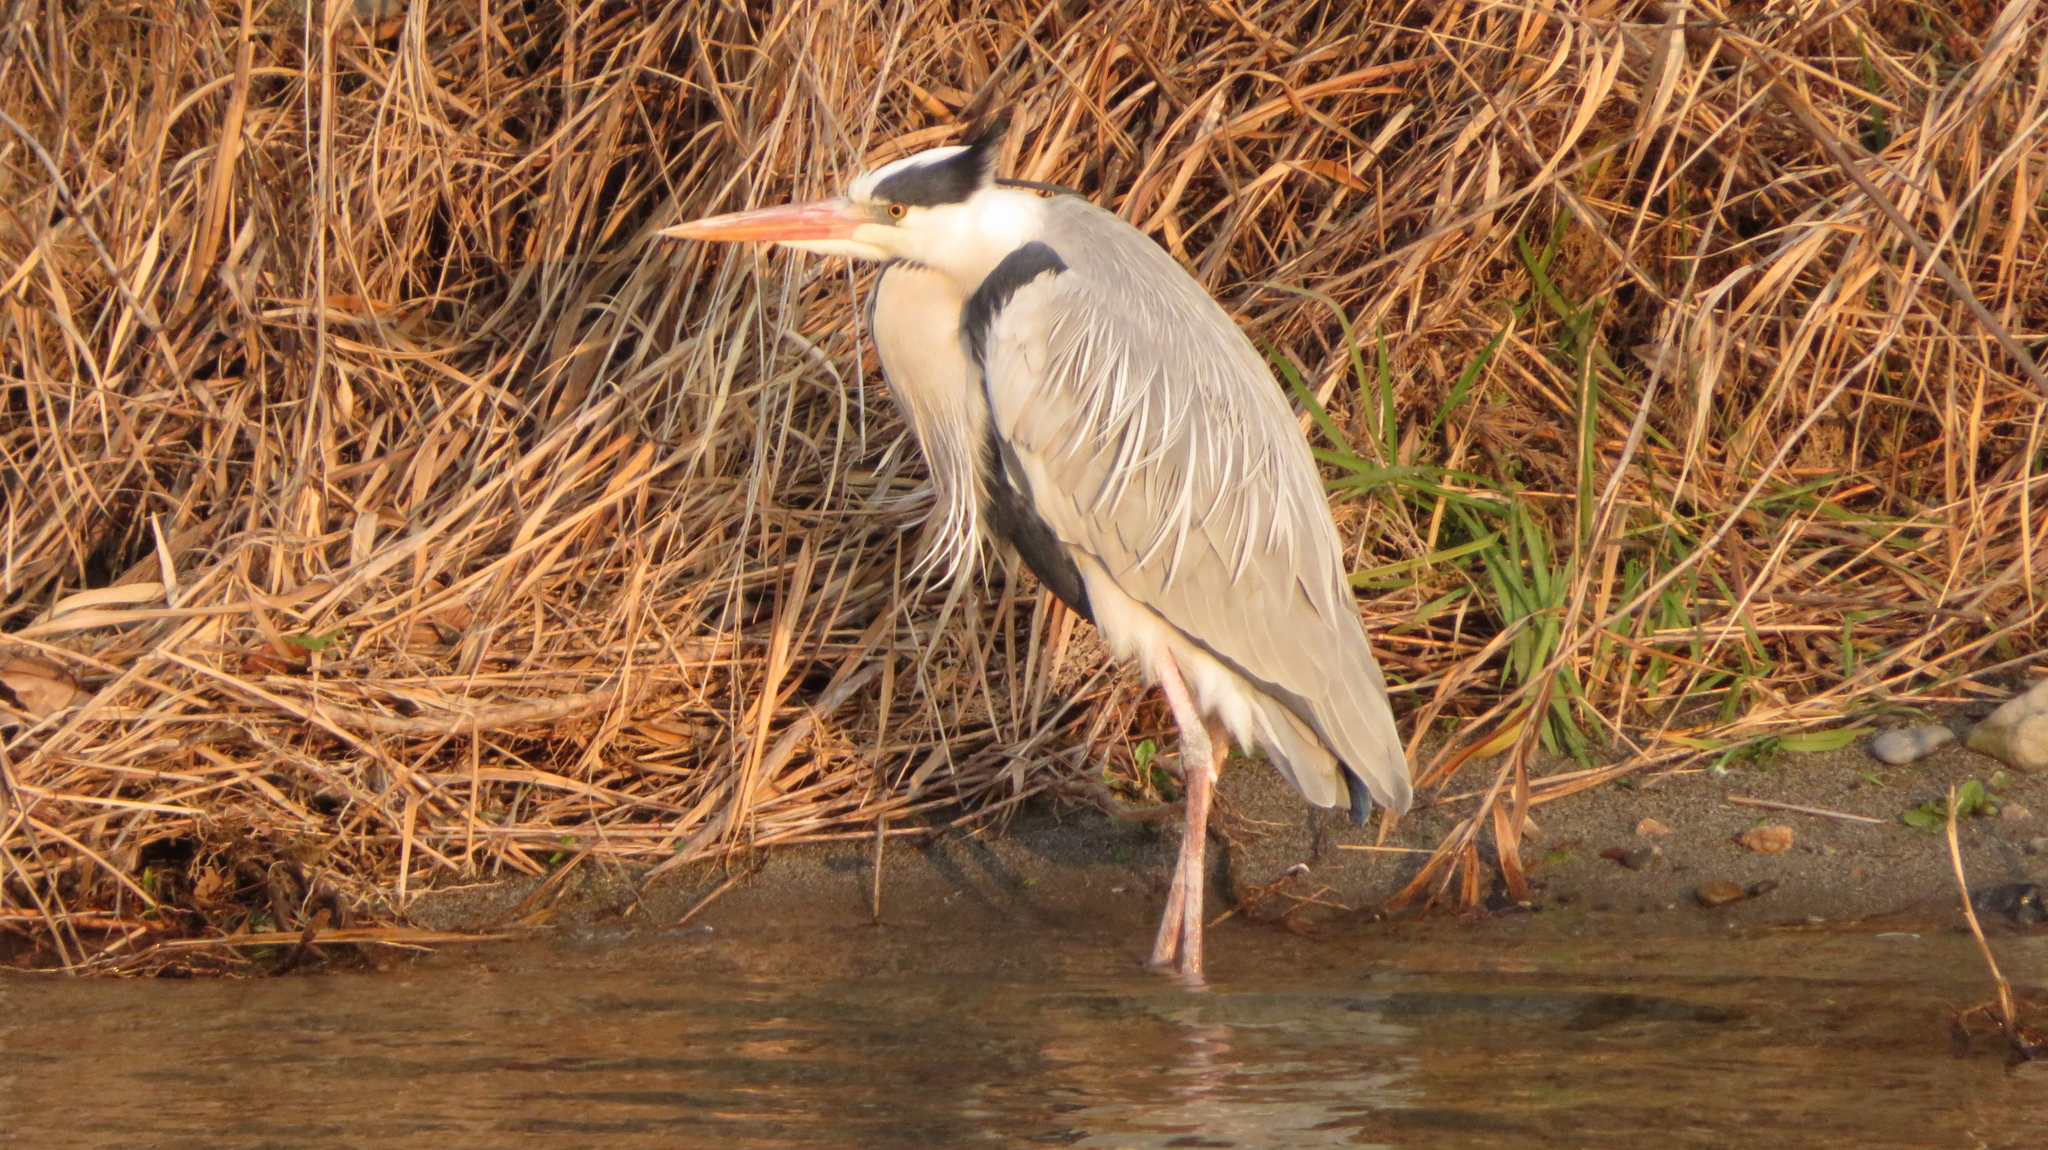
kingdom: Animalia
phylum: Chordata
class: Aves
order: Pelecaniformes
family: Ardeidae
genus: Ardea
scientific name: Ardea cinerea
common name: Grey heron
